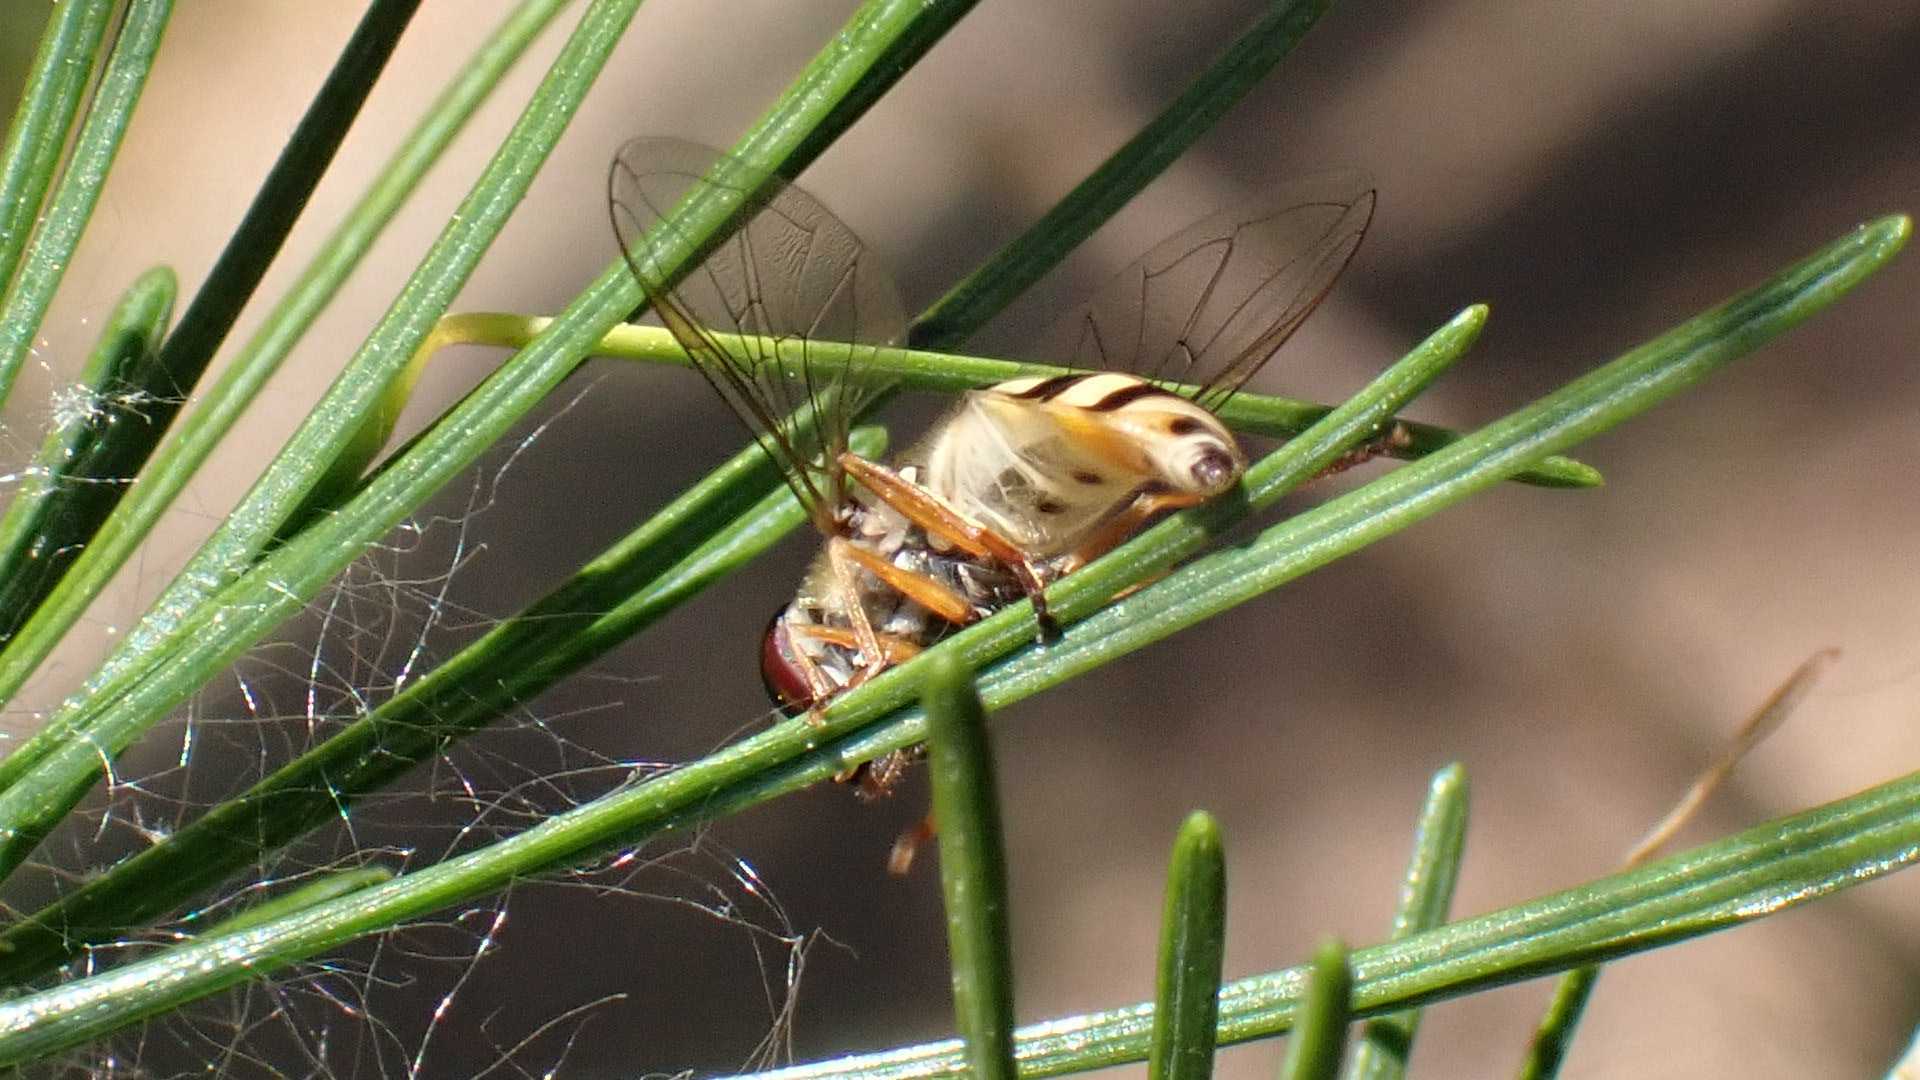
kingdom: Animalia
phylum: Arthropoda
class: Insecta
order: Diptera
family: Syrphidae
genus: Eupeodes
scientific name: Eupeodes corollae
